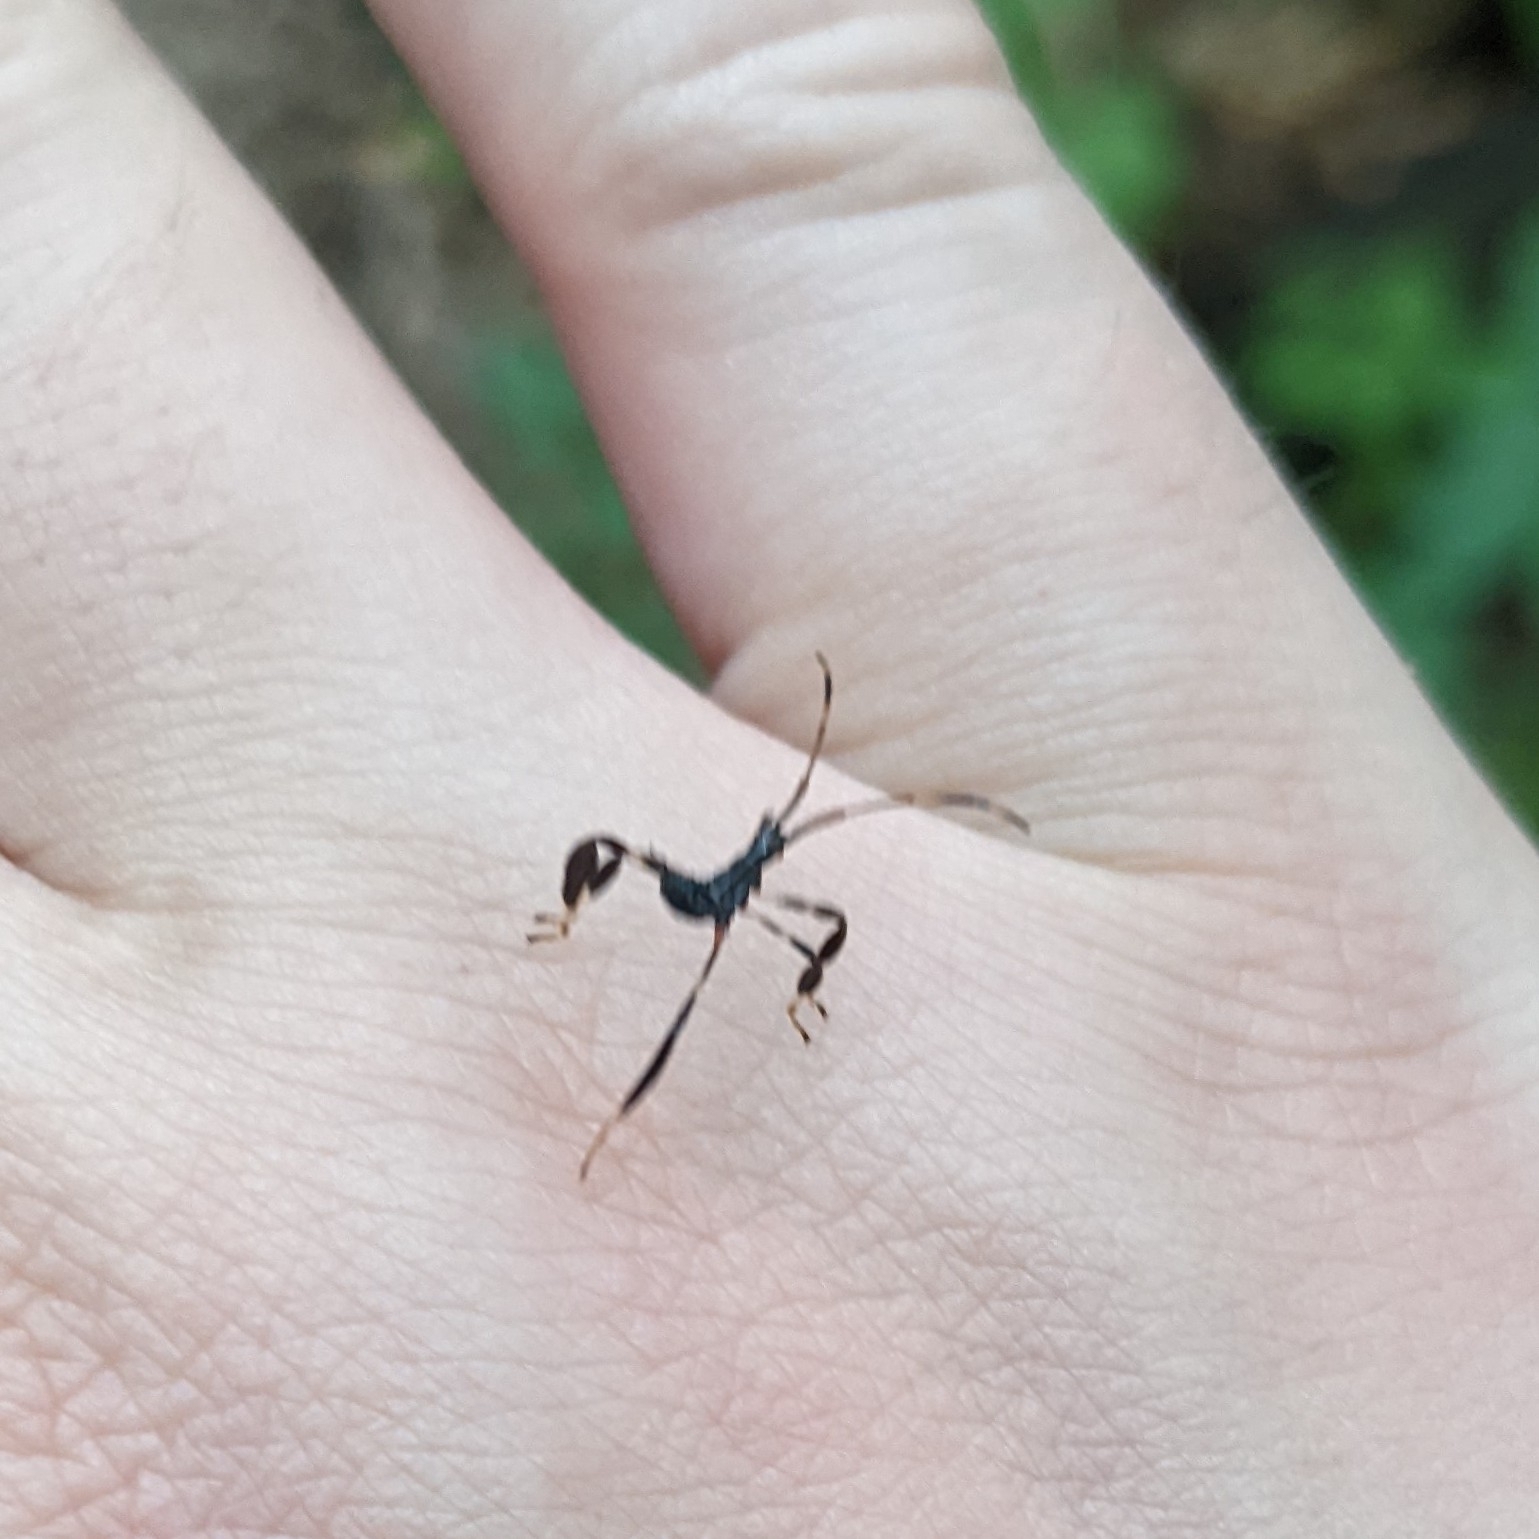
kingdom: Animalia
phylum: Arthropoda
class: Insecta
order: Hemiptera
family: Coreidae
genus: Acanthocephala
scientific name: Acanthocephala terminalis
